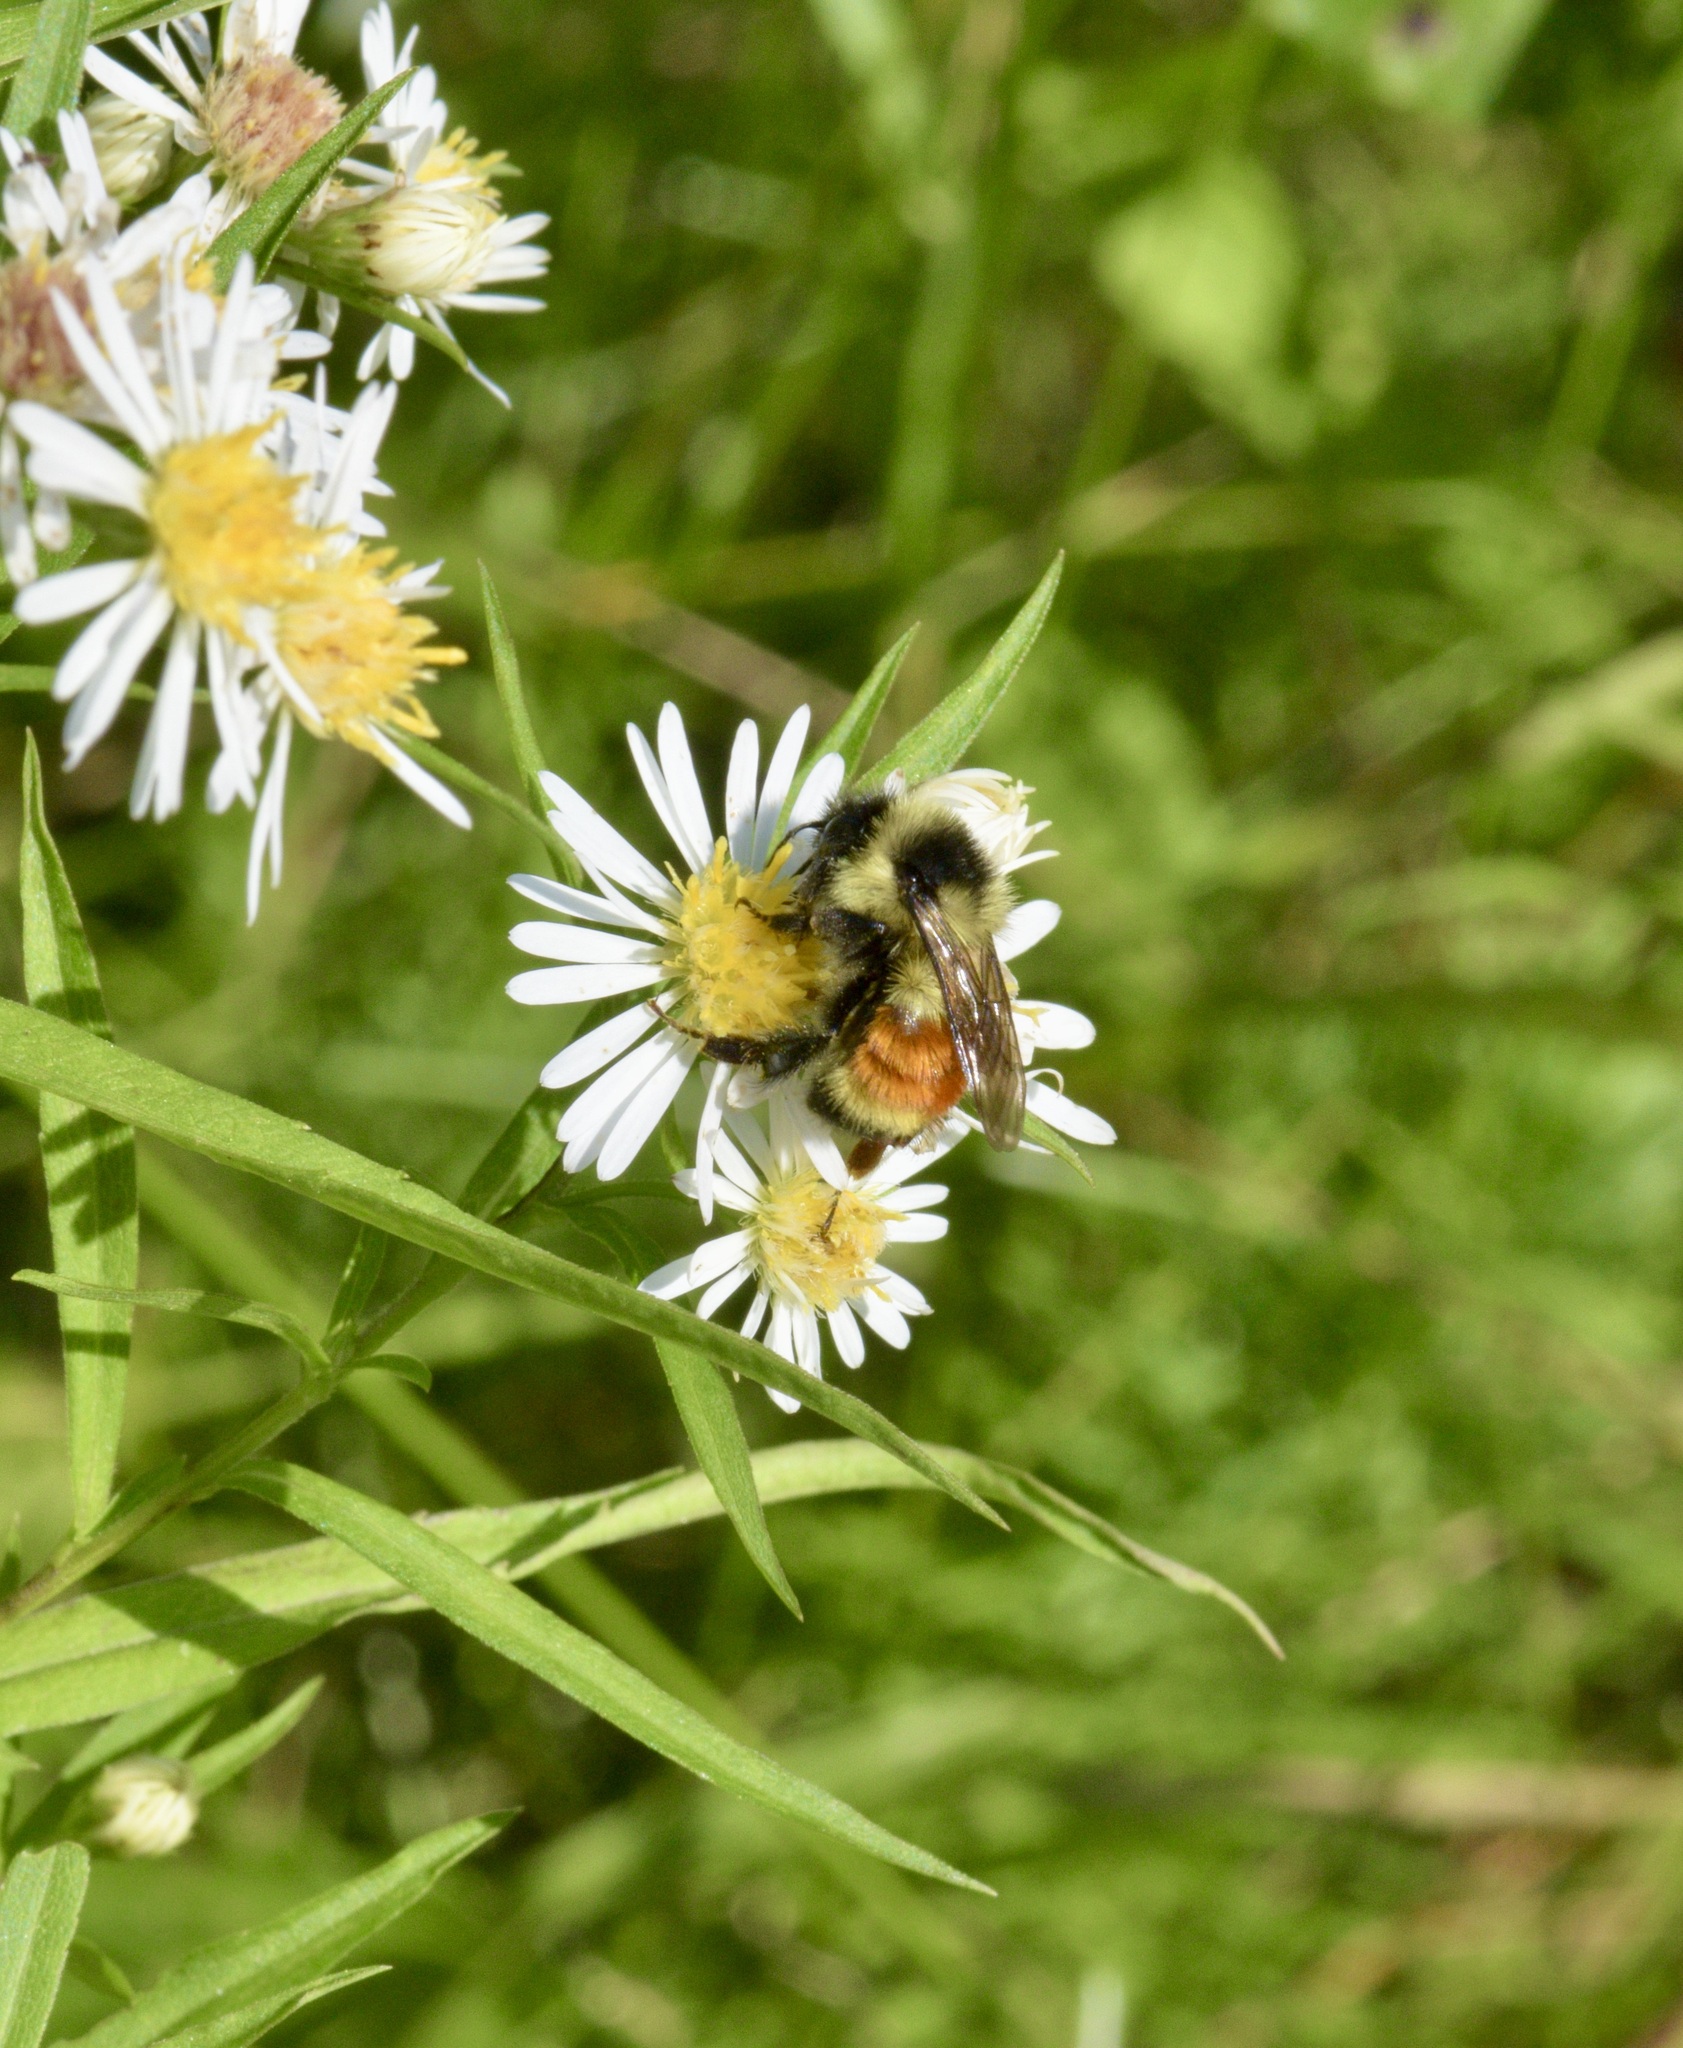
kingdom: Animalia
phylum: Arthropoda
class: Insecta
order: Hymenoptera
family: Apidae
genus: Bombus
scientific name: Bombus ternarius
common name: Tri-colored bumble bee
